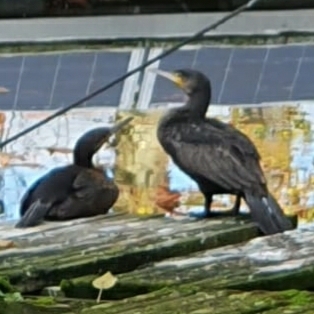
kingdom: Animalia
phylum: Chordata
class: Aves
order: Suliformes
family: Phalacrocoracidae
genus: Phalacrocorax
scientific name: Phalacrocorax carbo
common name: Great cormorant
